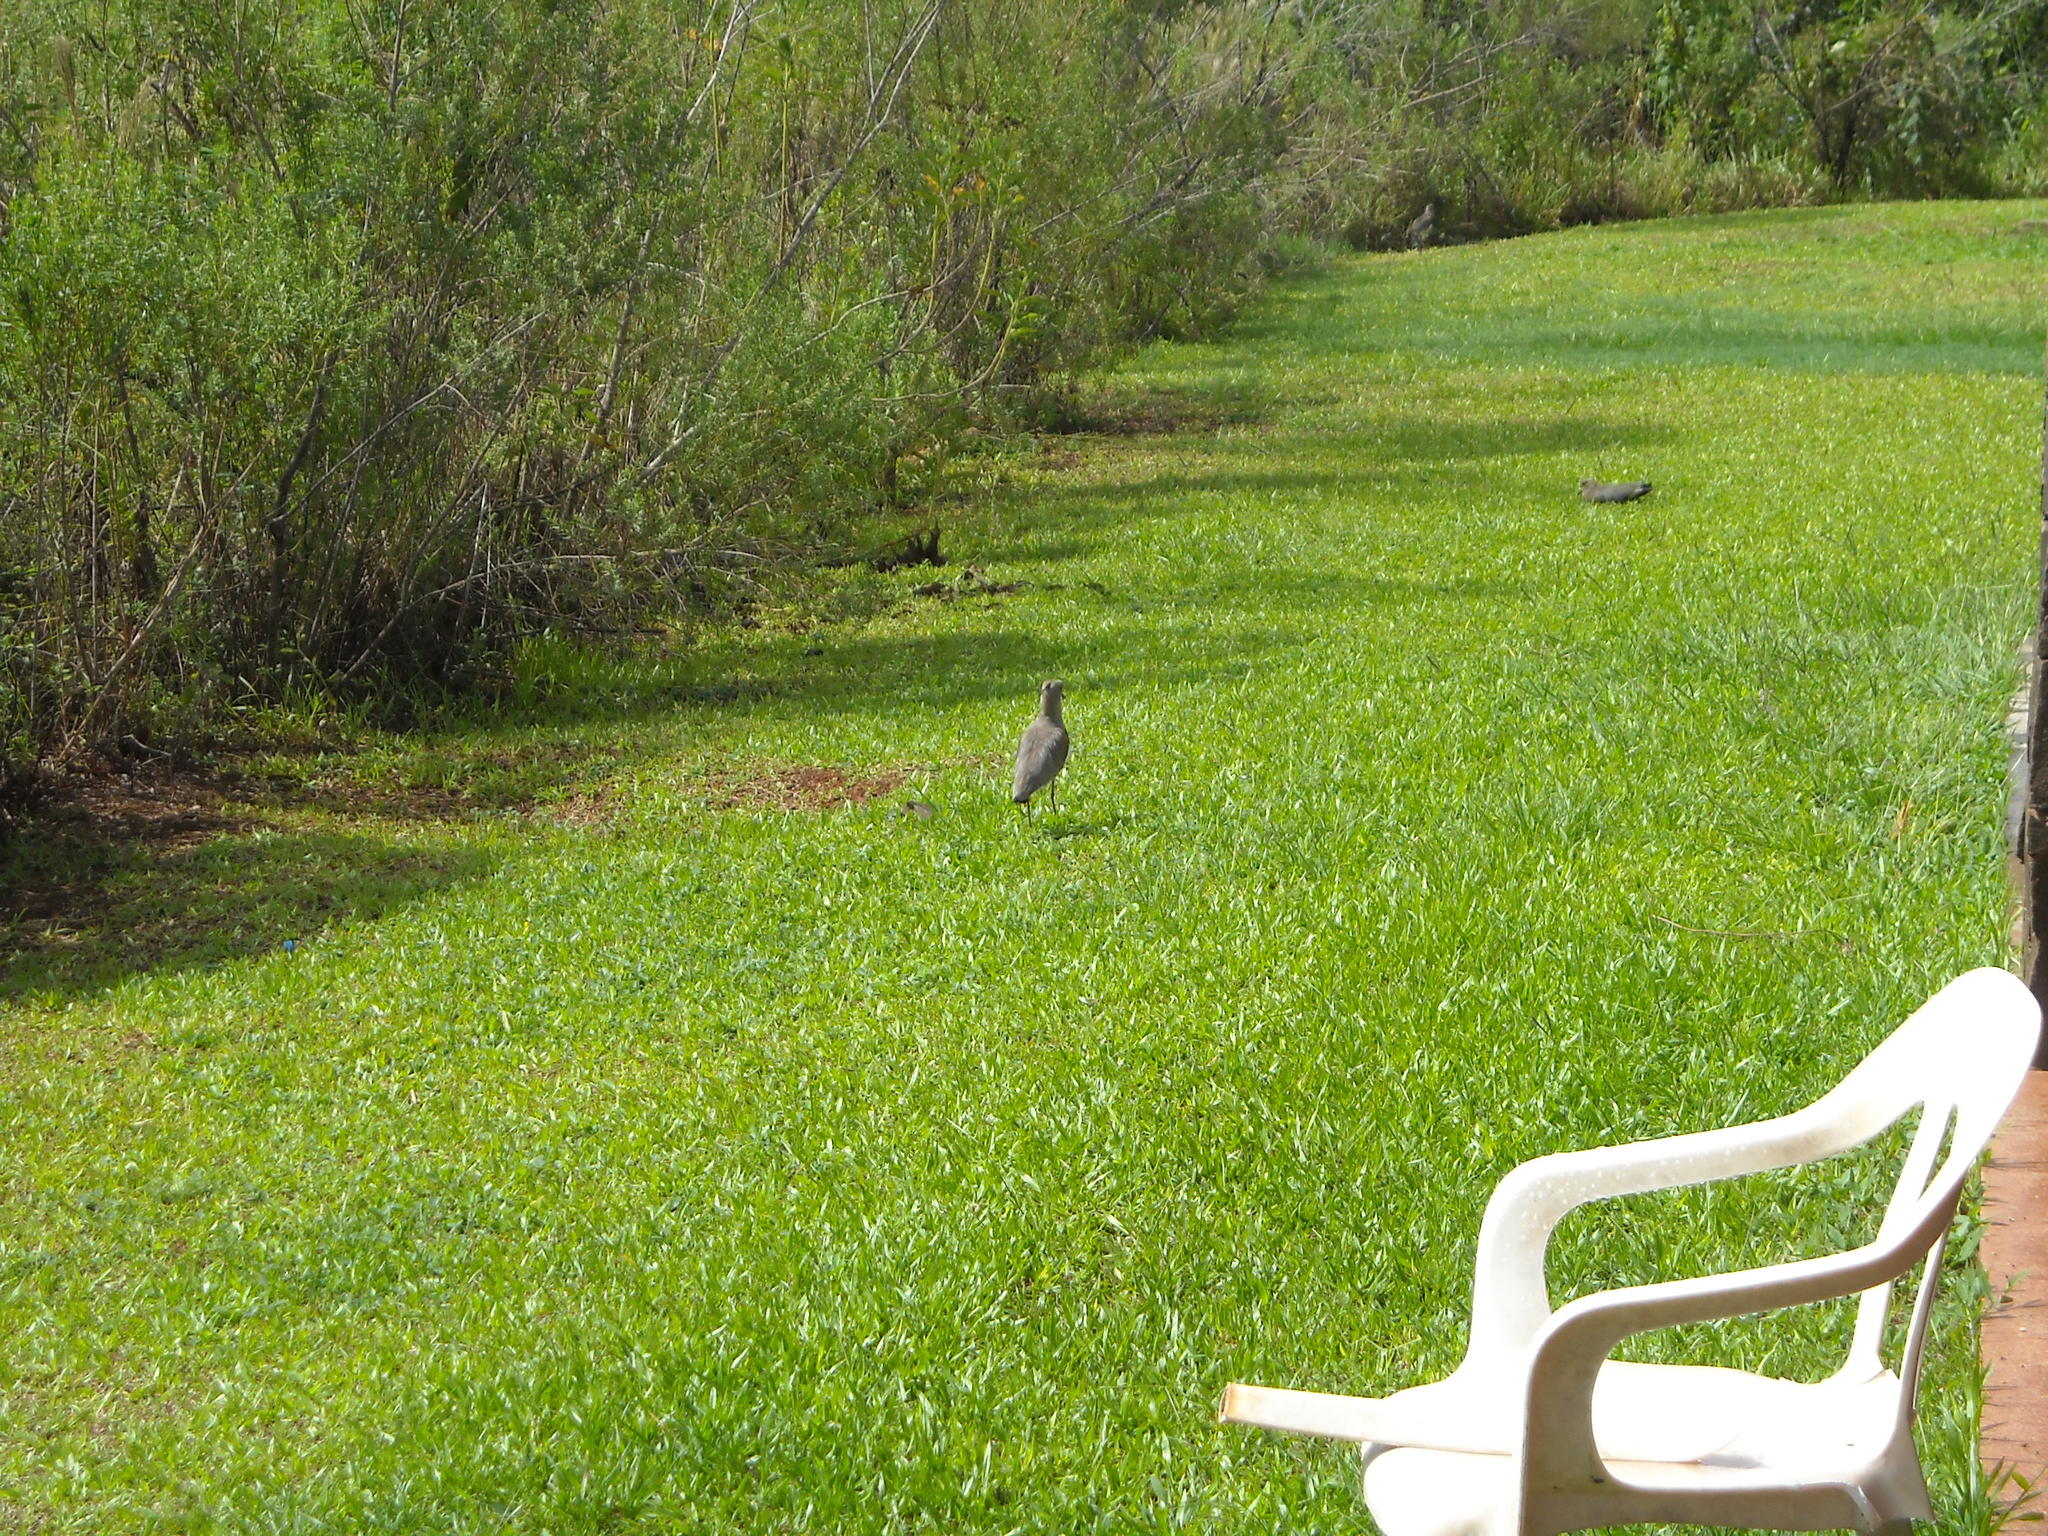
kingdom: Animalia
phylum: Chordata
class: Aves
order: Charadriiformes
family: Charadriidae
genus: Vanellus
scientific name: Vanellus chilensis
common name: Southern lapwing
